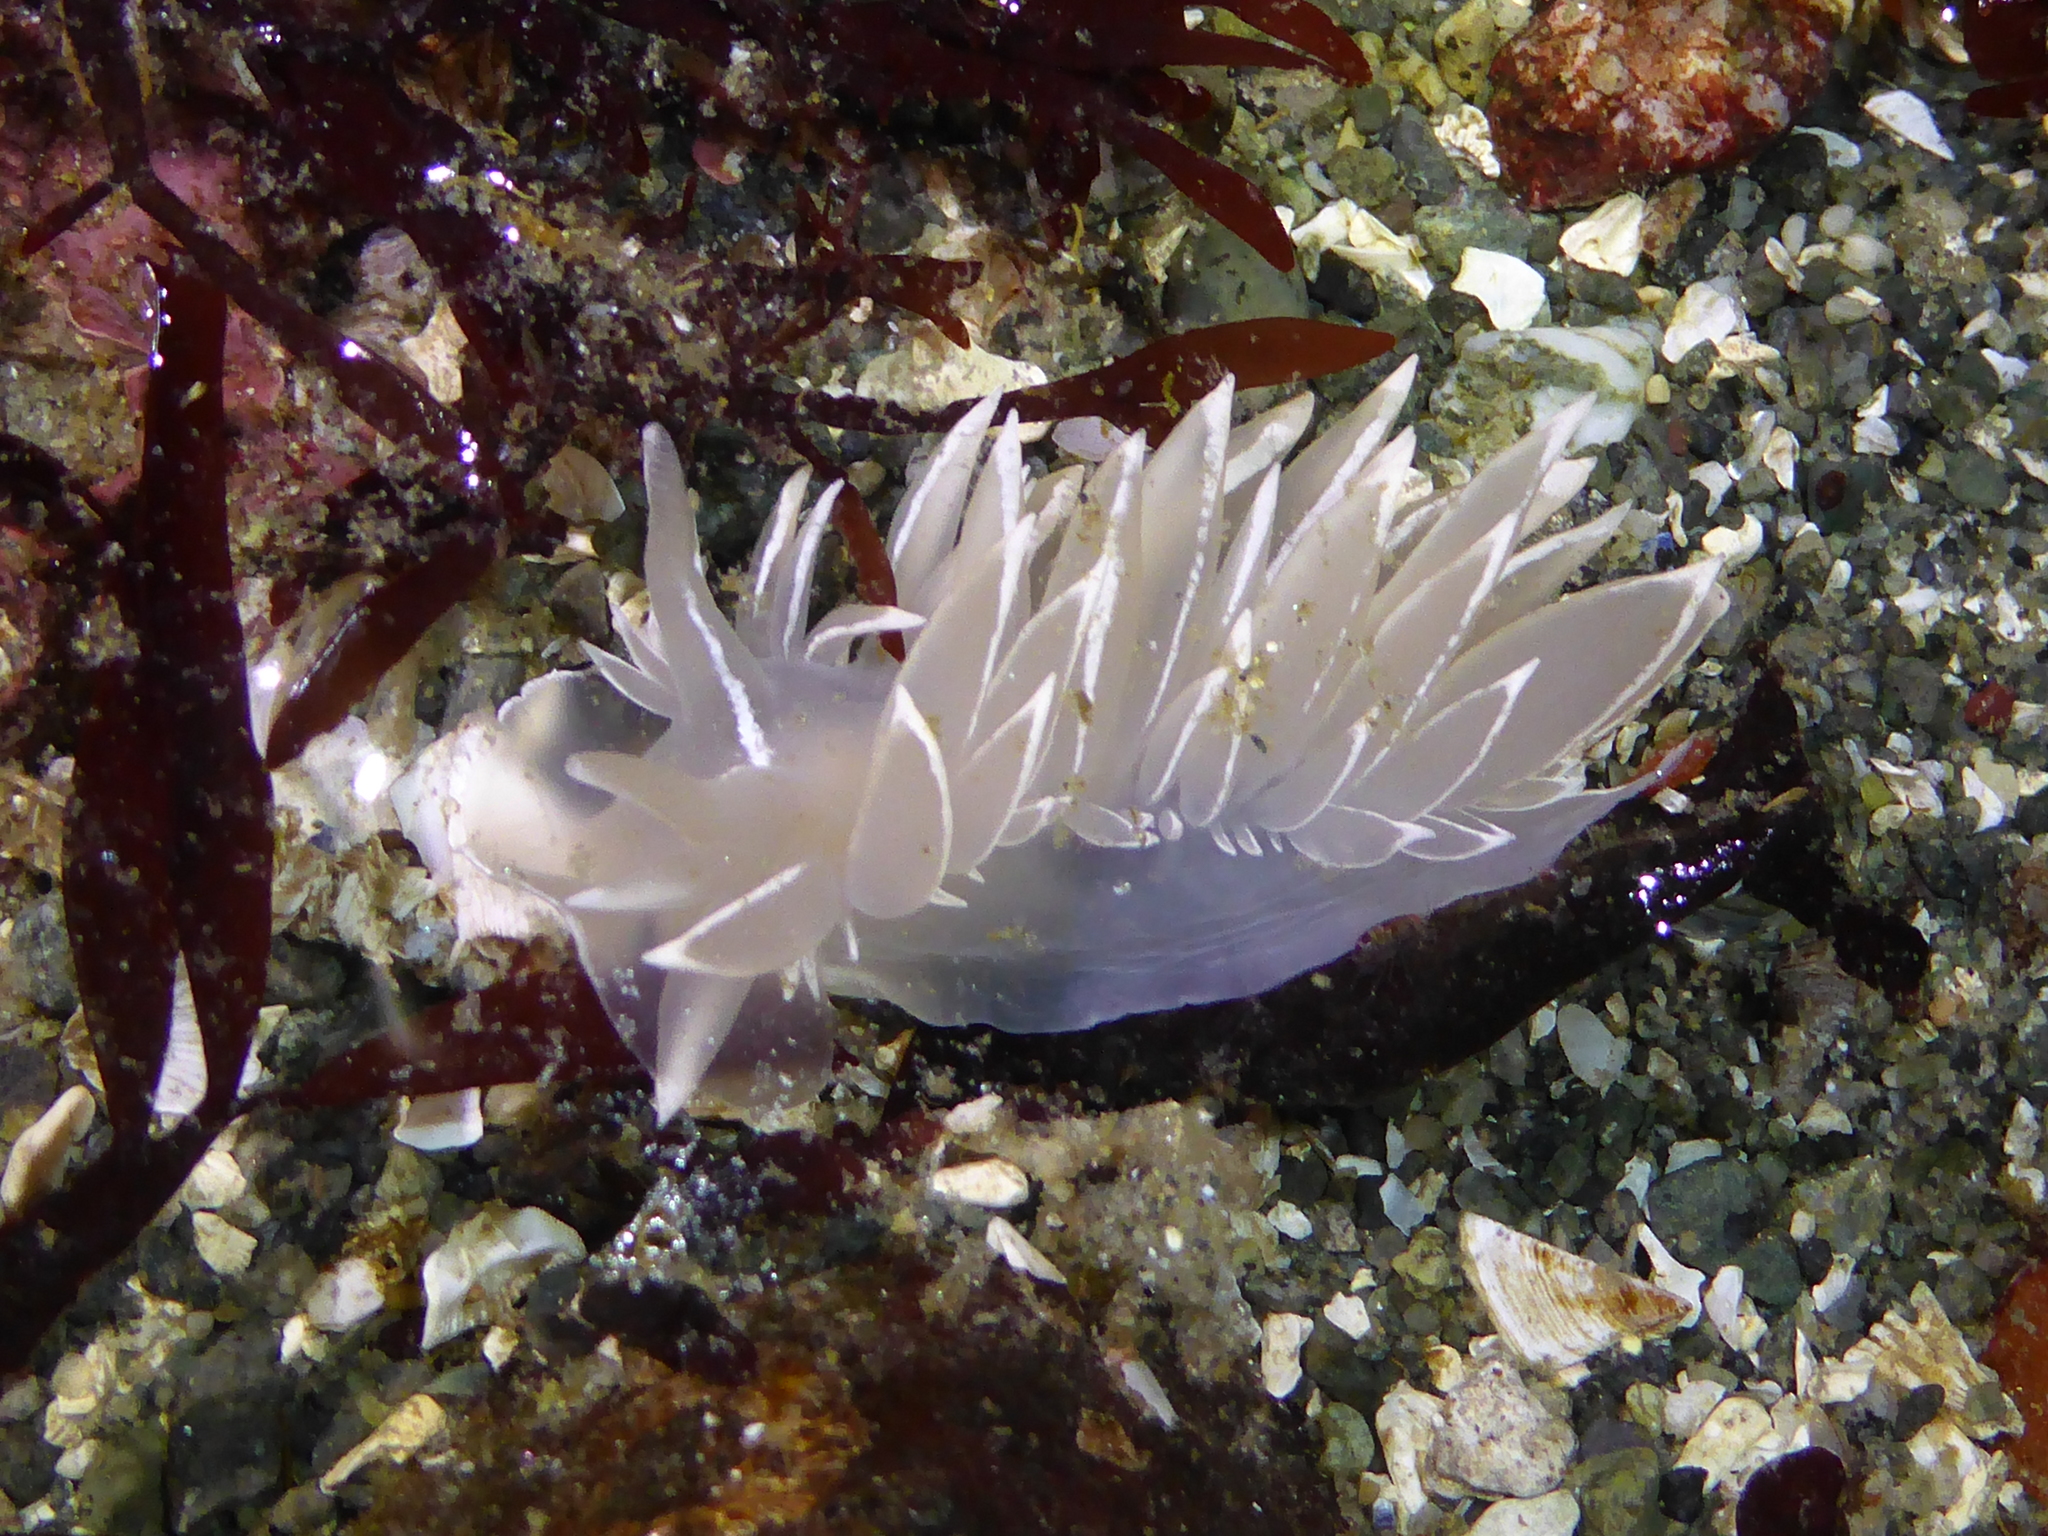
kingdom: Animalia
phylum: Mollusca
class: Gastropoda
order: Nudibranchia
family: Dironidae
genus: Dirona
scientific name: Dirona albolineata
